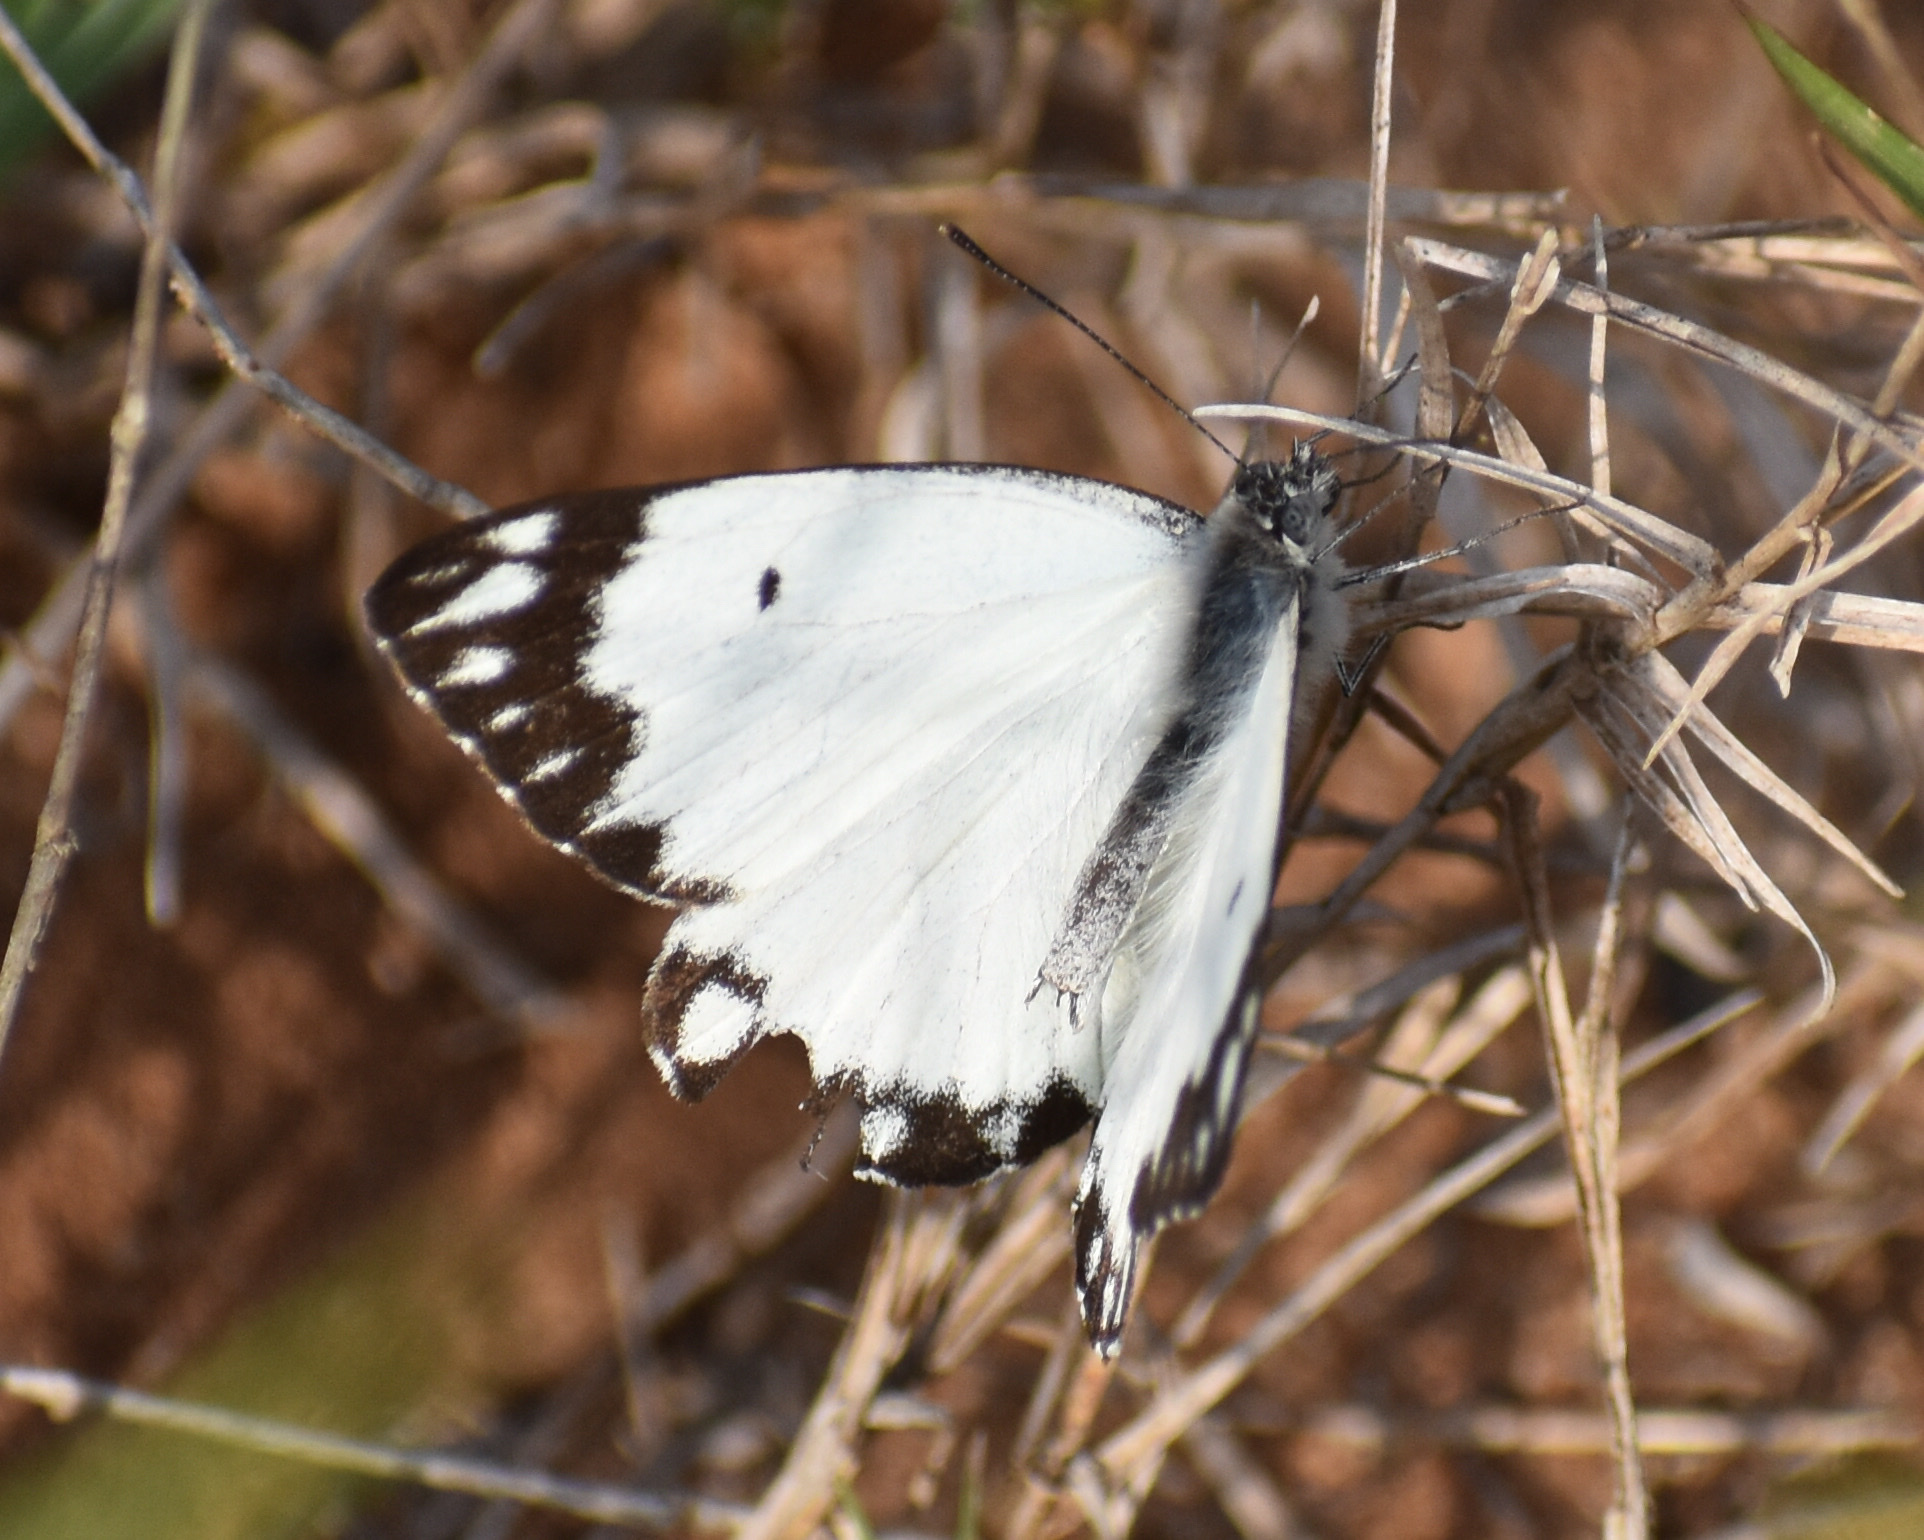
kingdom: Animalia
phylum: Arthropoda
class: Insecta
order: Lepidoptera
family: Pieridae
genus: Belenois
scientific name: Belenois aurota
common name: Brown-veined white
